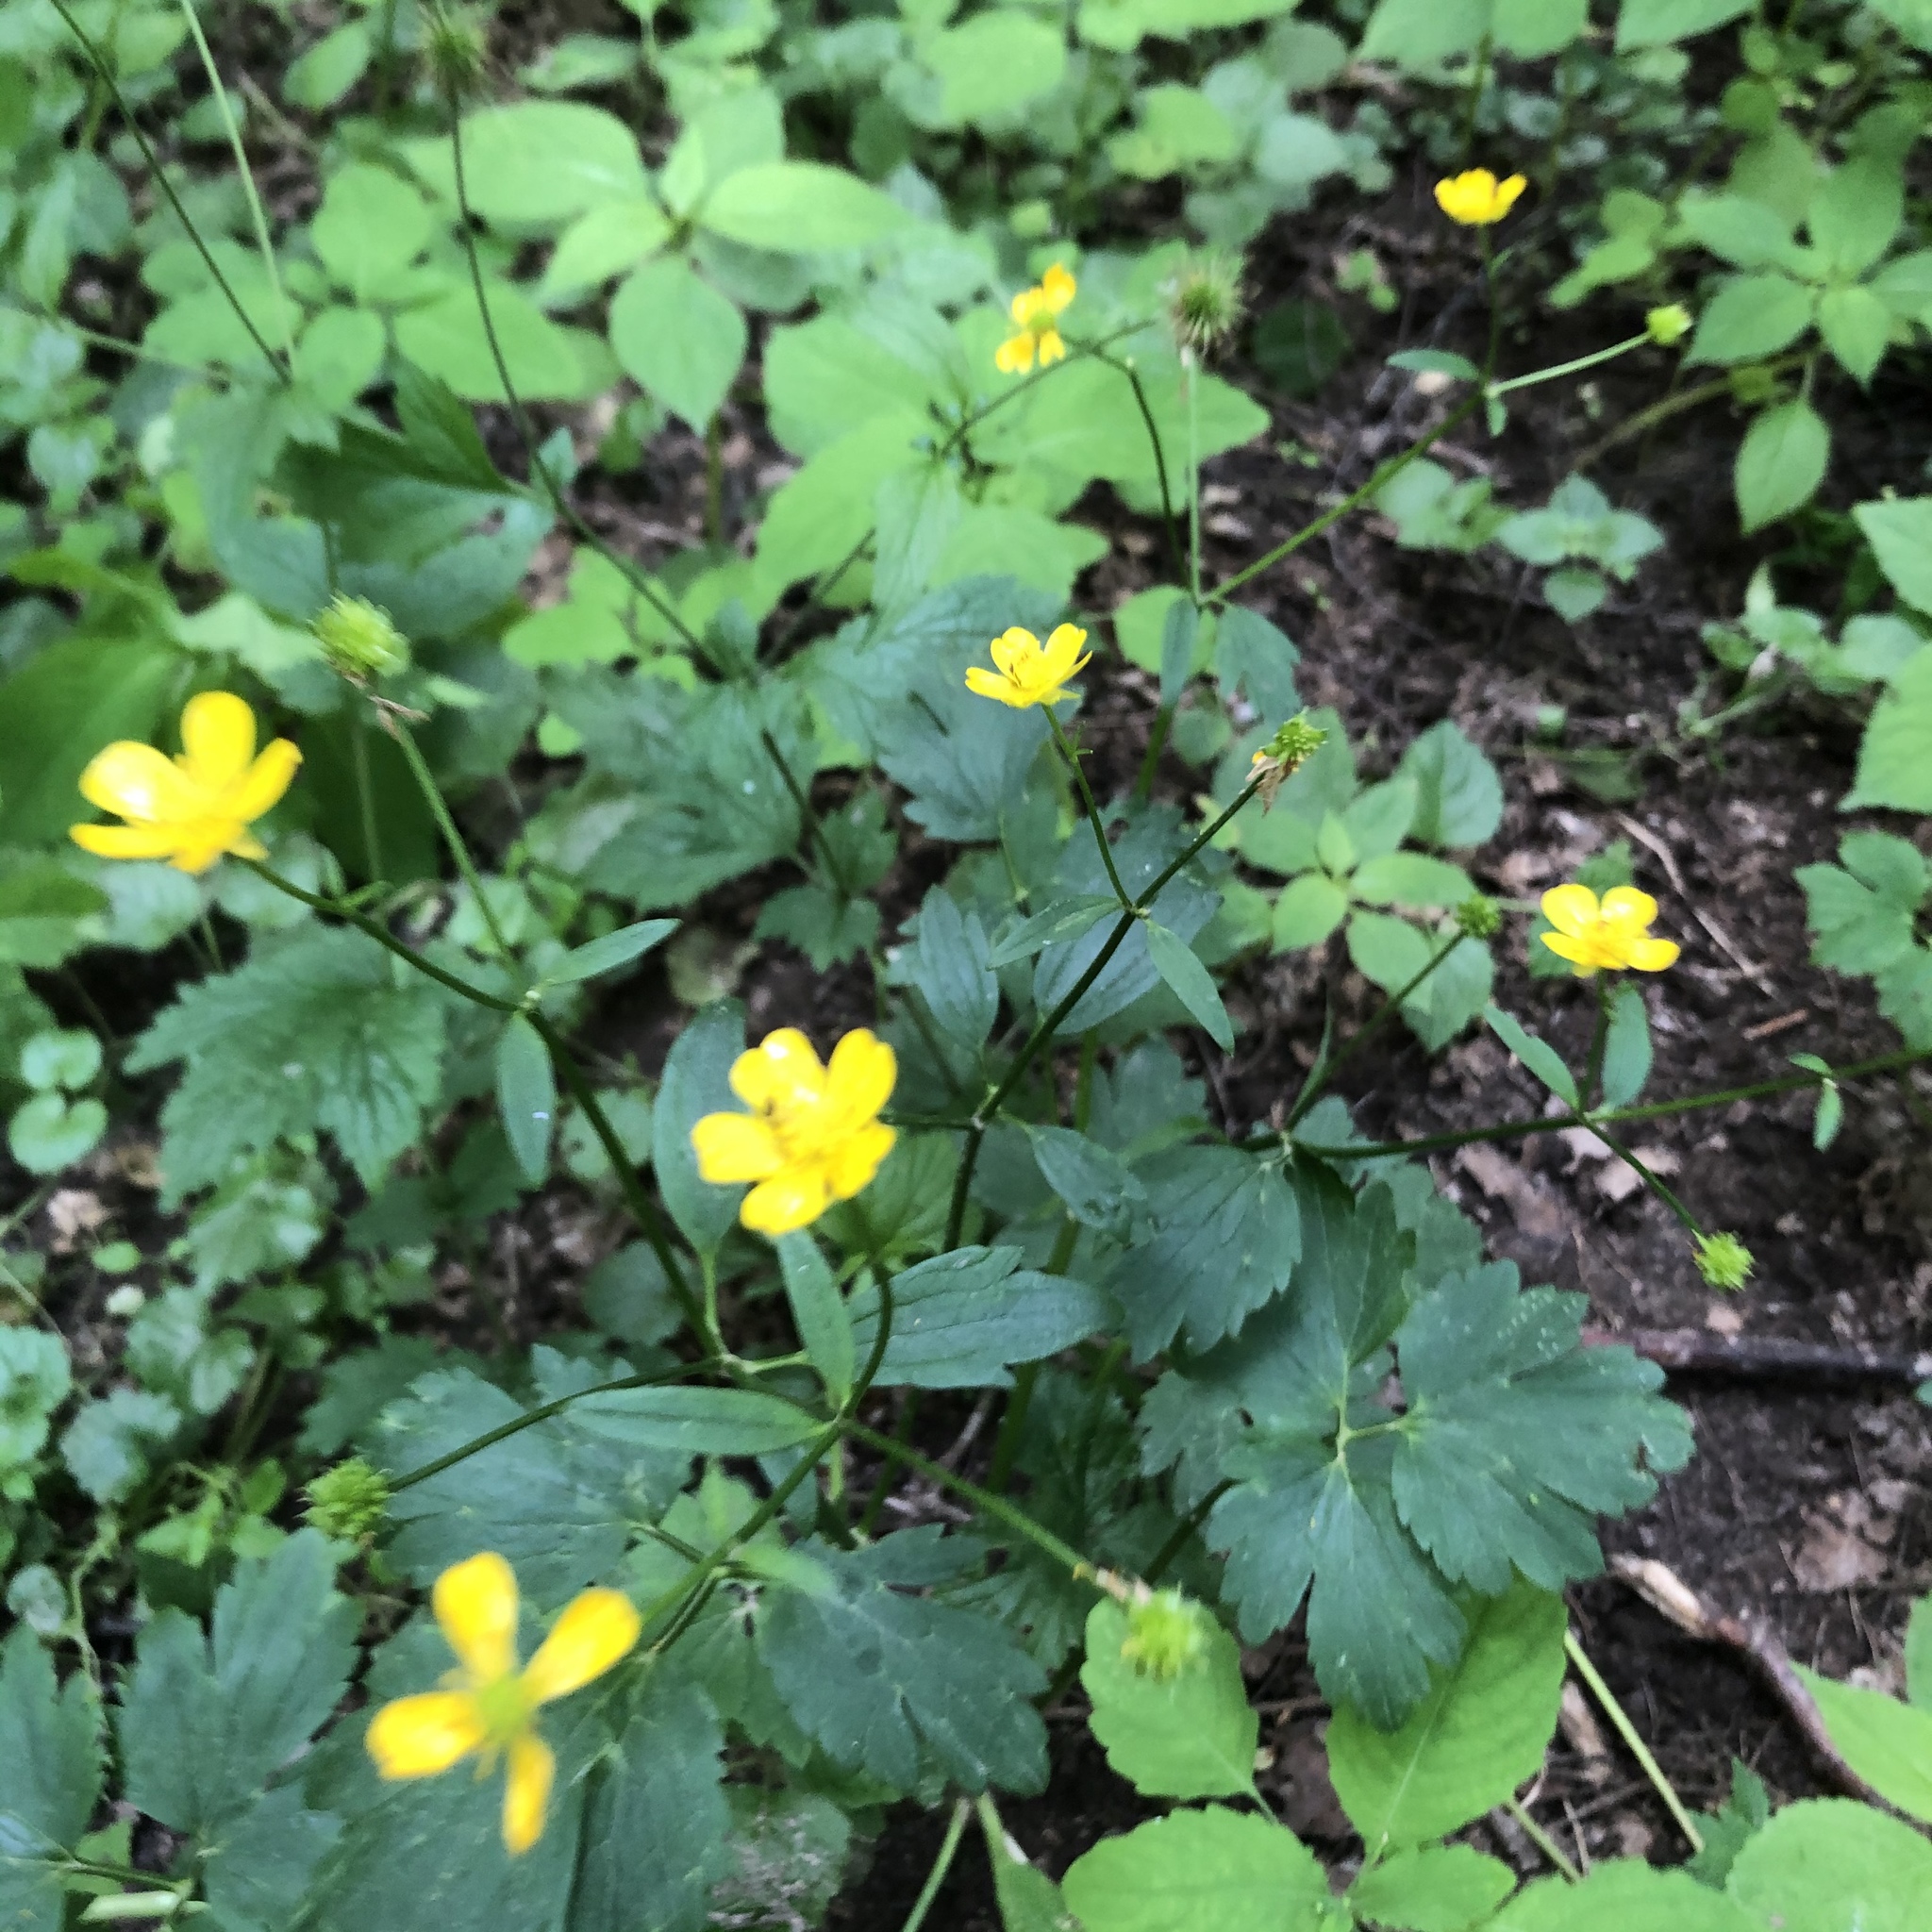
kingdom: Plantae
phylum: Tracheophyta
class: Magnoliopsida
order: Ranunculales
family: Ranunculaceae
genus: Ranunculus
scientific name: Ranunculus repens
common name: Creeping buttercup
